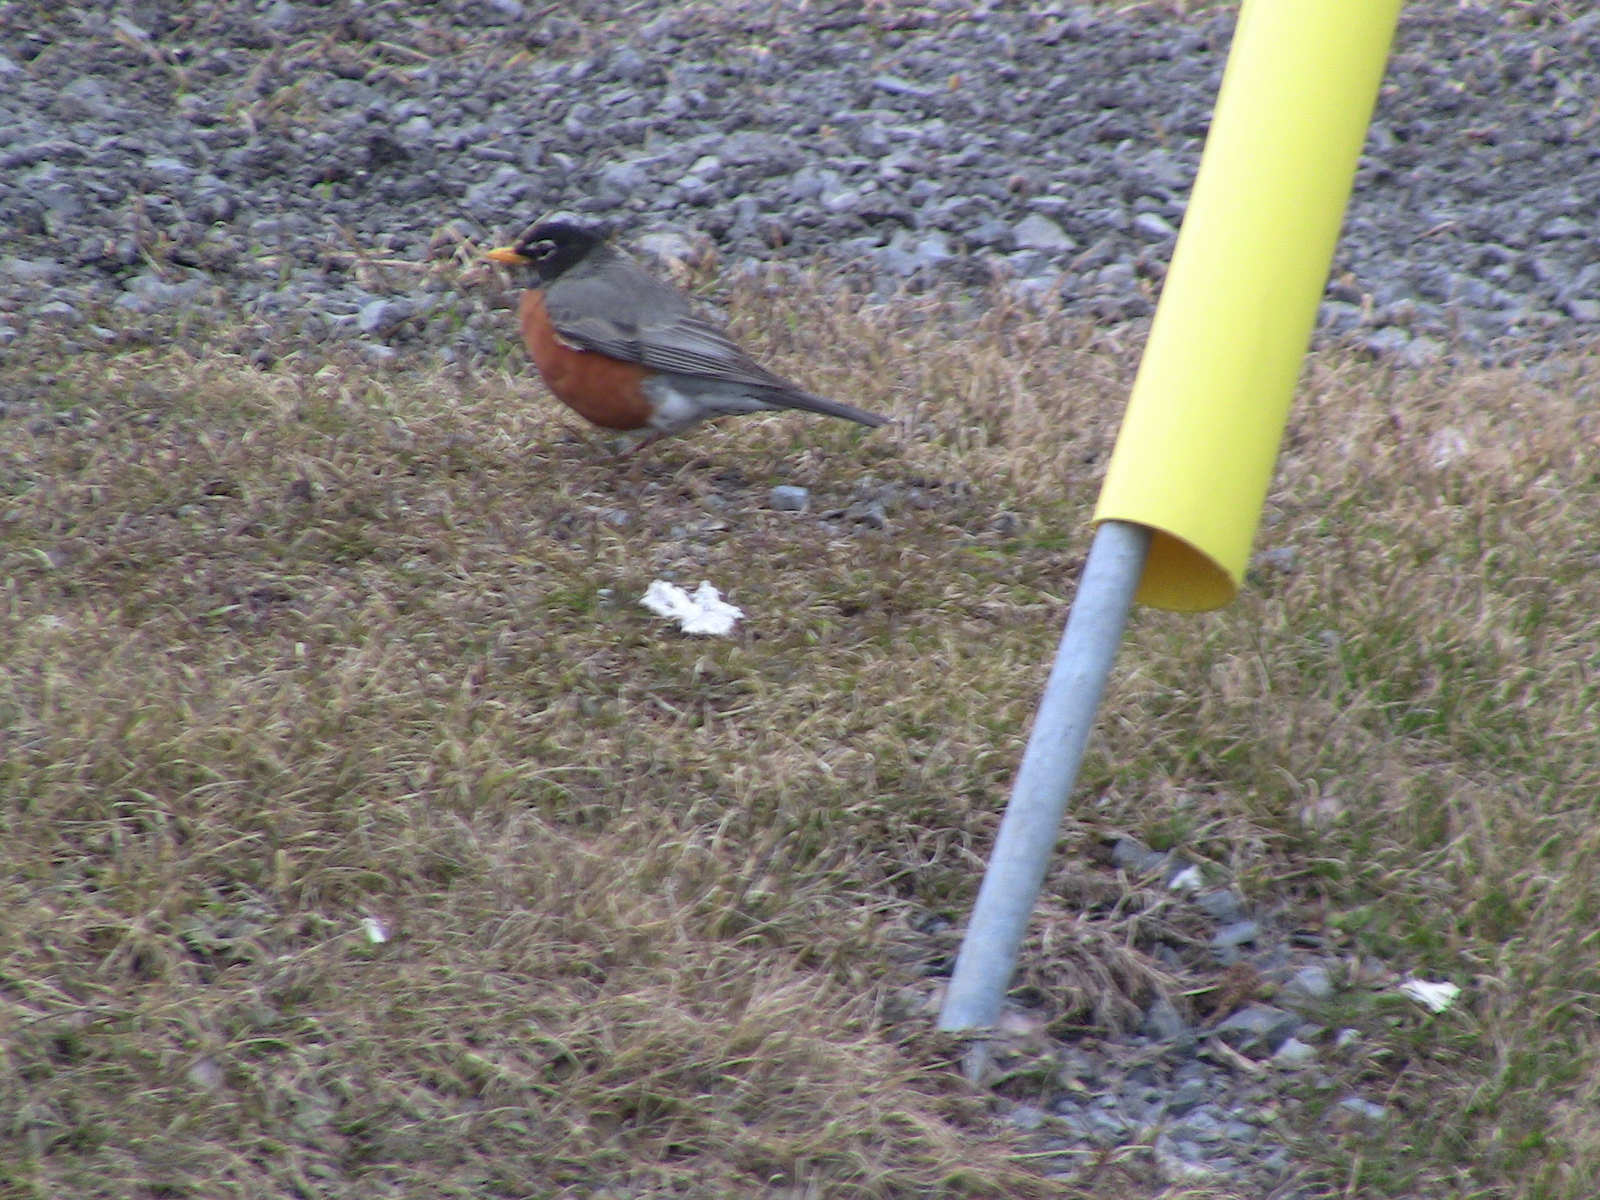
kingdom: Animalia
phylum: Chordata
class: Aves
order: Passeriformes
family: Turdidae
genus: Turdus
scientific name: Turdus migratorius
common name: American robin
